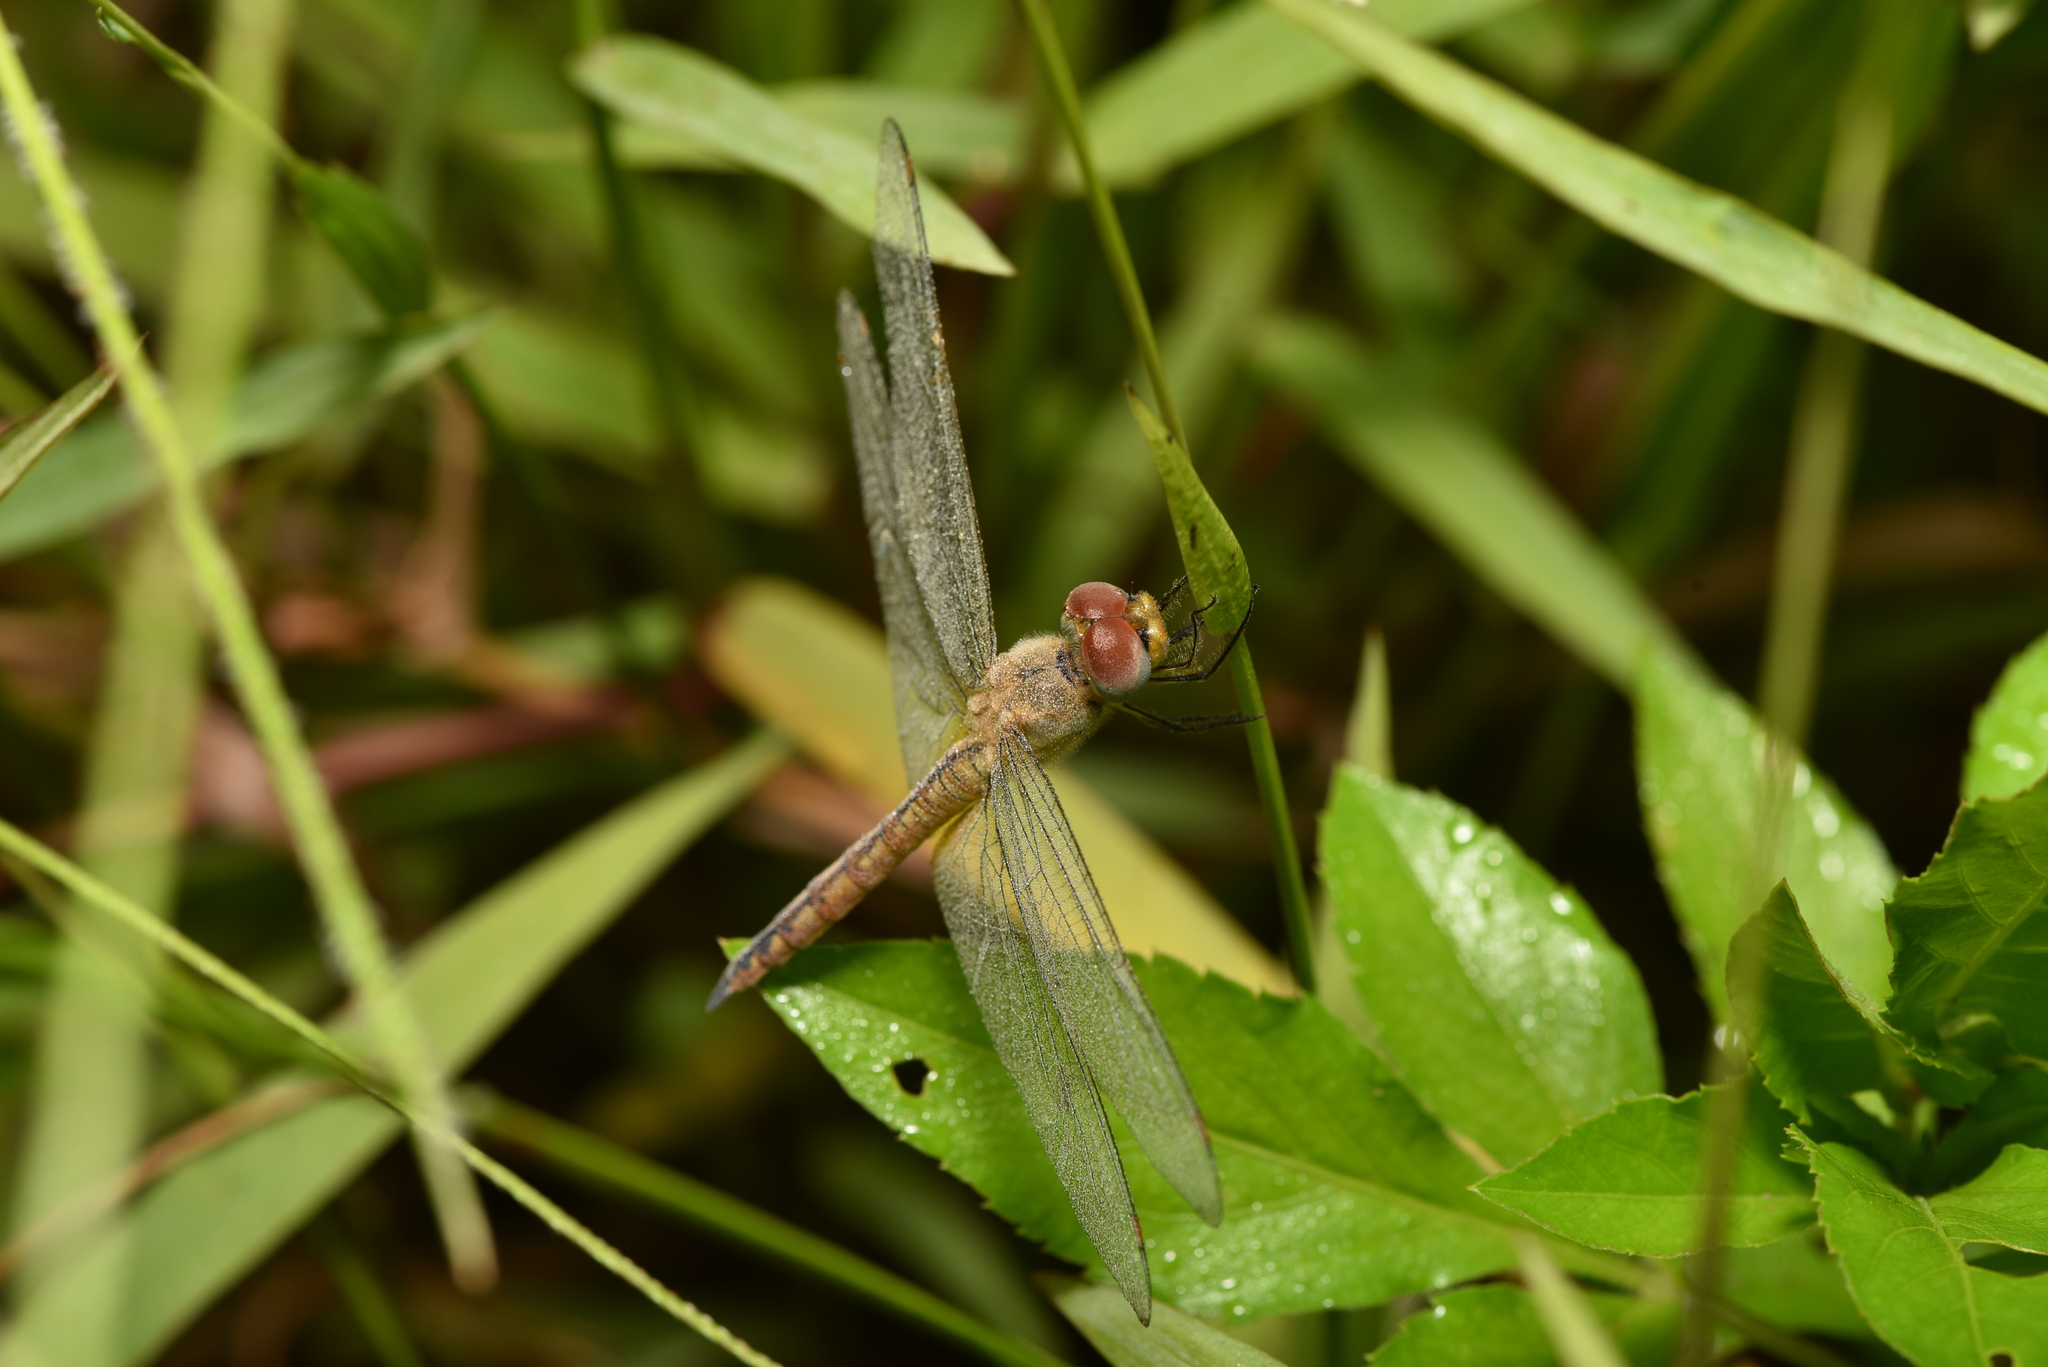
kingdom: Animalia
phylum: Arthropoda
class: Insecta
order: Odonata
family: Libellulidae
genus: Pantala
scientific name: Pantala flavescens
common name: Wandering glider
